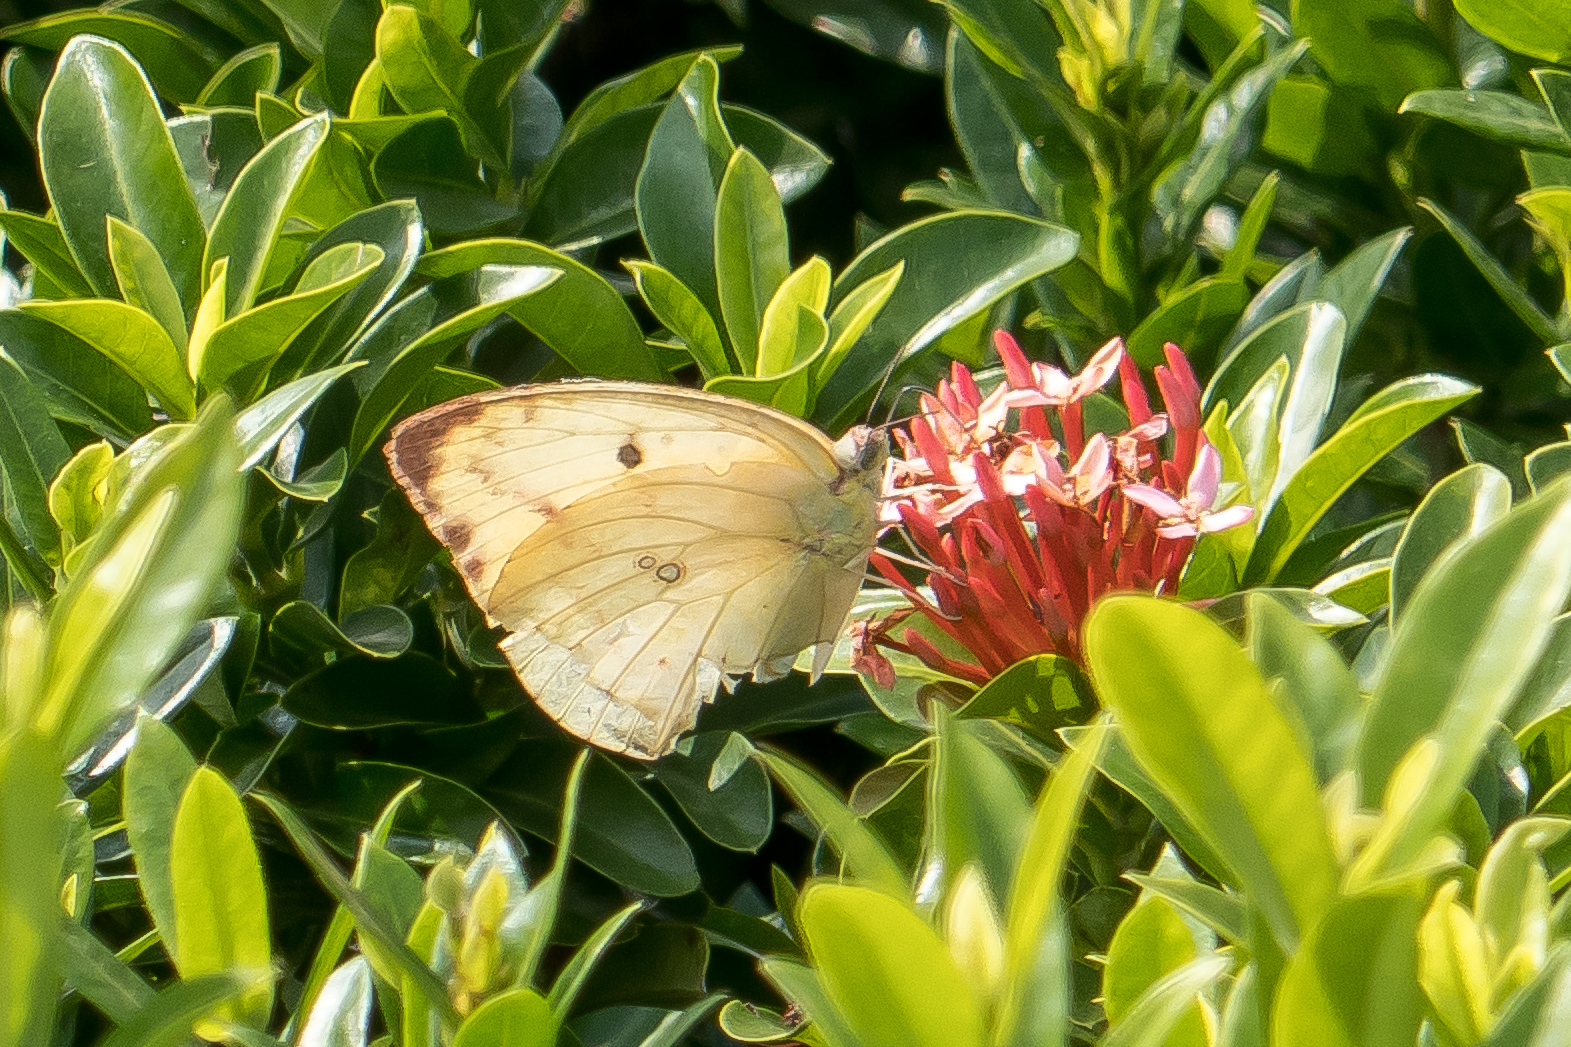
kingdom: Animalia
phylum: Arthropoda
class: Insecta
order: Lepidoptera
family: Pieridae
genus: Catopsilia
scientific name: Catopsilia pomona
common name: Common emigrant
